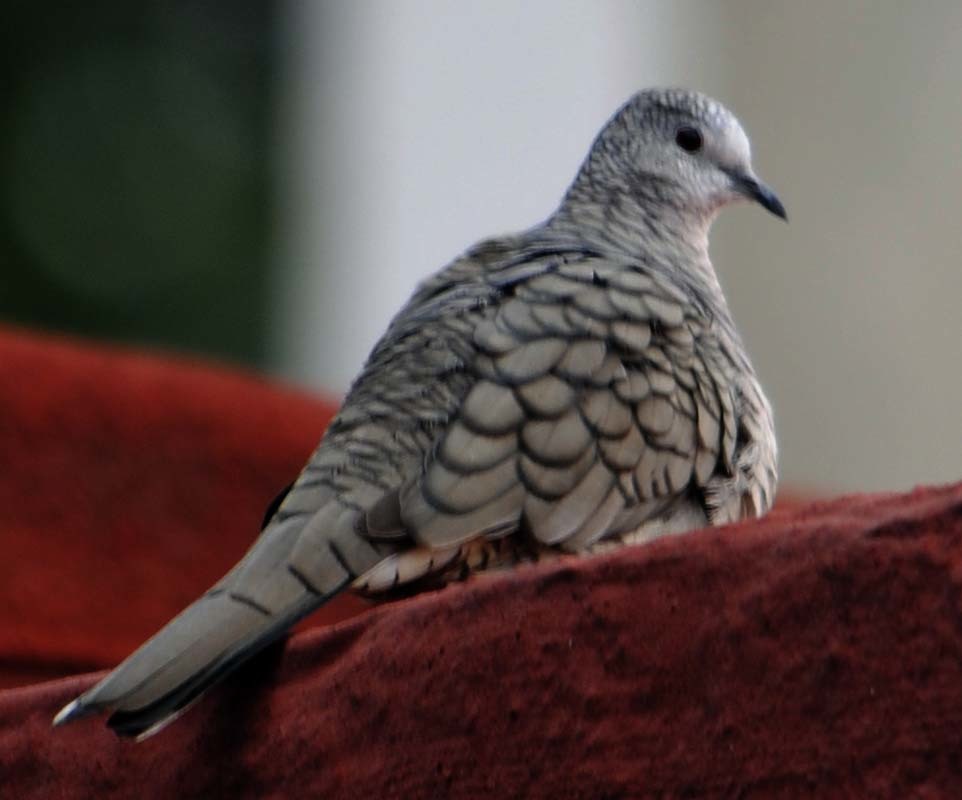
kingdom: Animalia
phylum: Chordata
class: Aves
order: Columbiformes
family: Columbidae
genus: Columbina
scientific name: Columbina inca
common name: Inca dove
